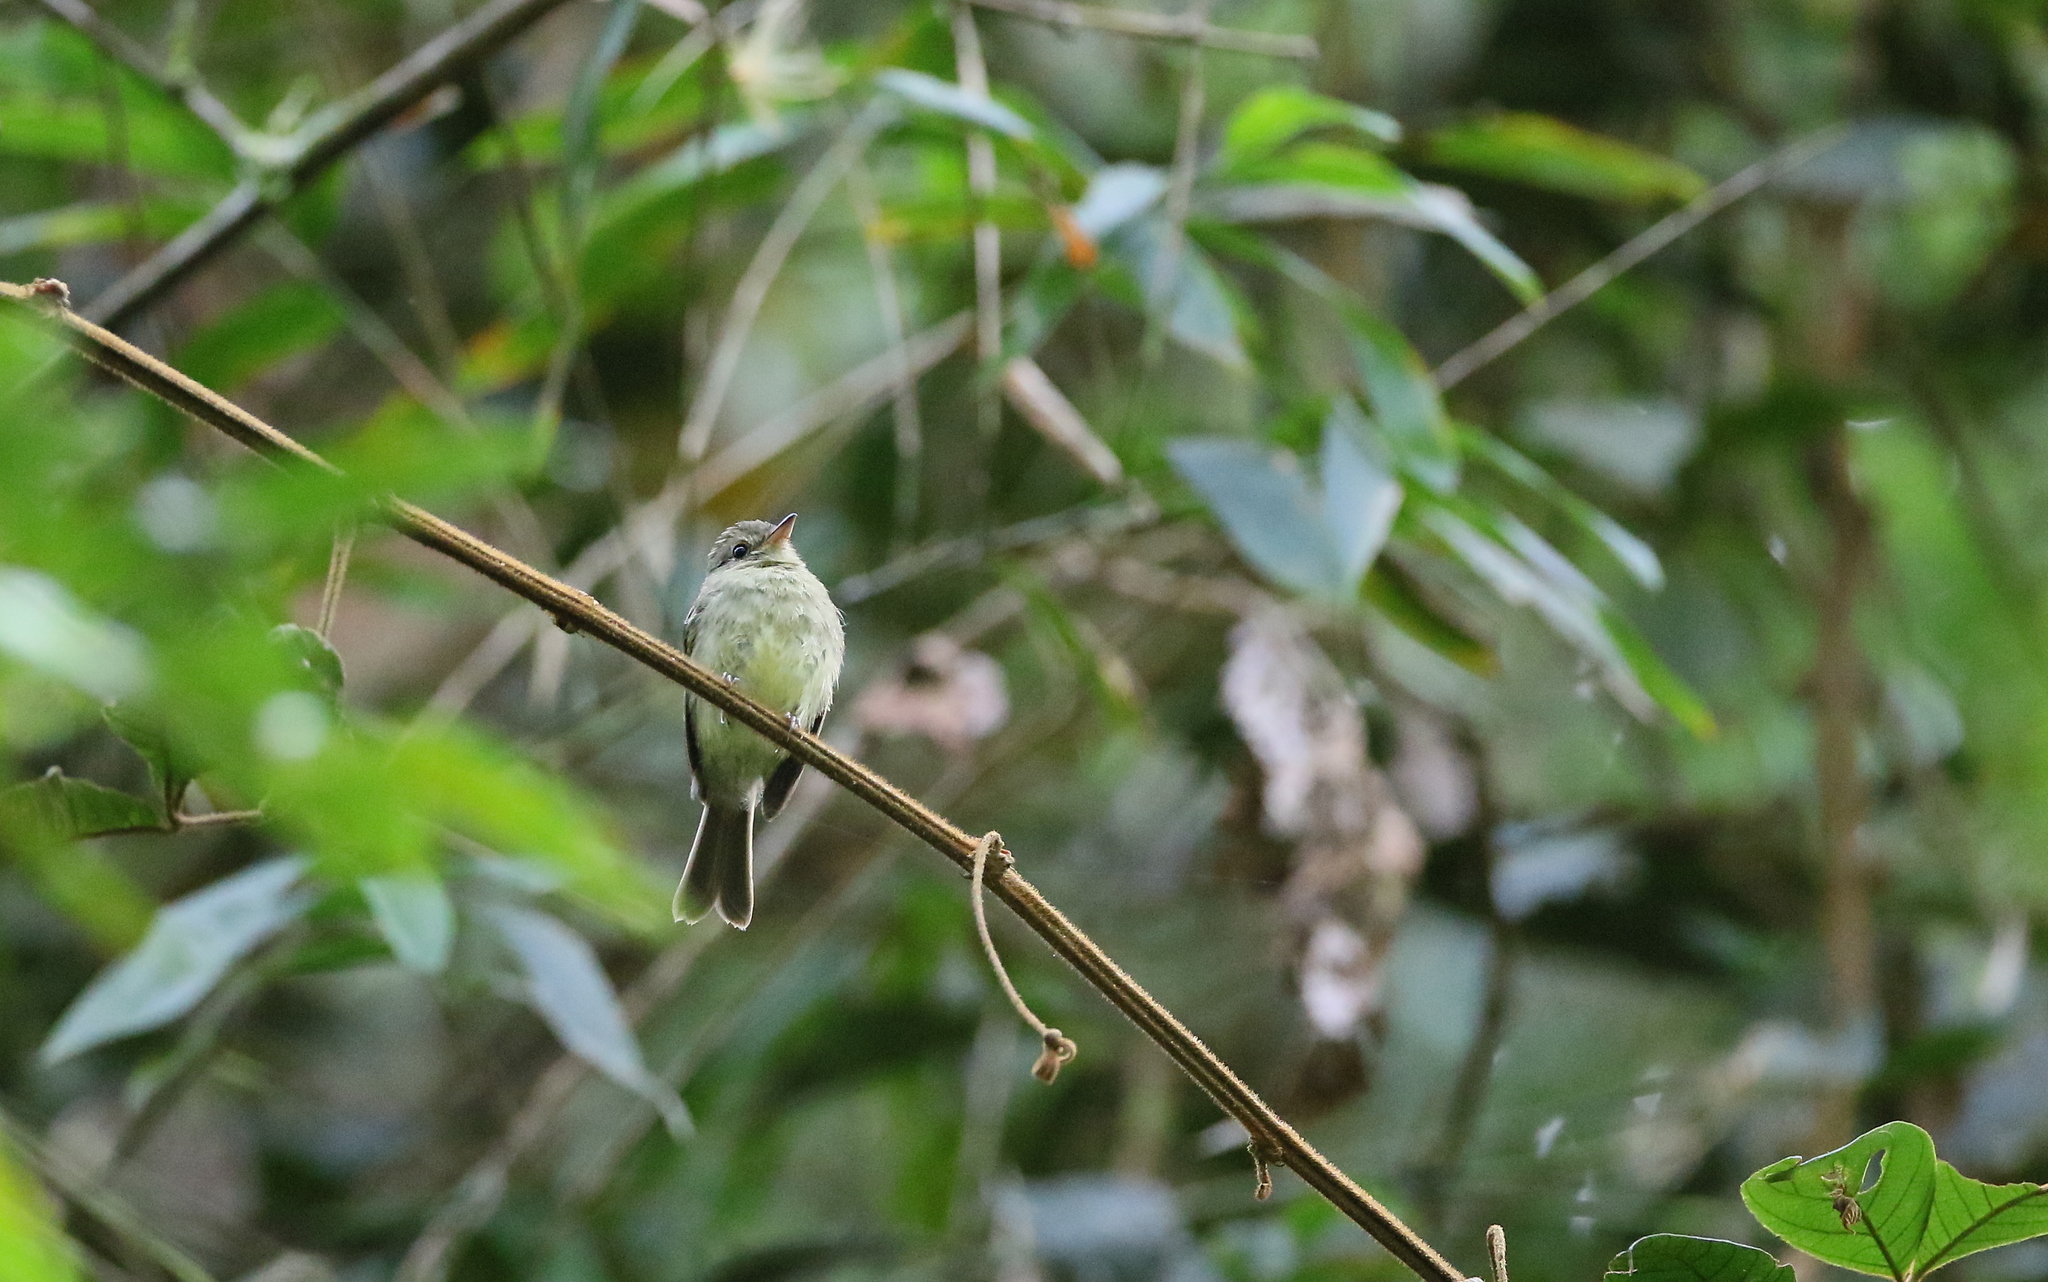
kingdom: Animalia
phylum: Chordata
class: Aves
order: Passeriformes
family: Tyrannidae
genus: Lathrotriccus
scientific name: Lathrotriccus euleri
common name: Euler's flycatcher
